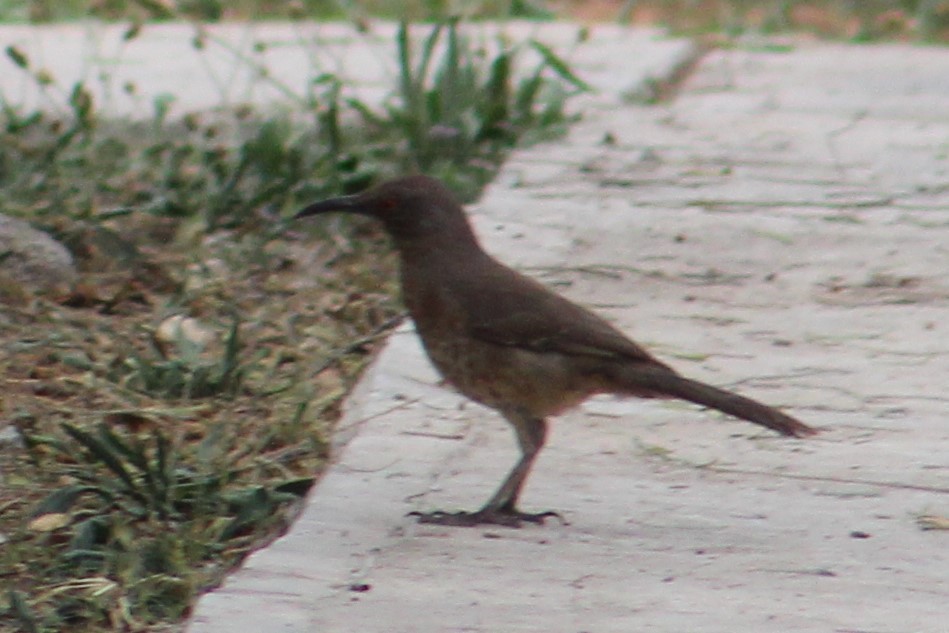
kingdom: Animalia
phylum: Chordata
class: Aves
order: Passeriformes
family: Mimidae
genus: Toxostoma
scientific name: Toxostoma curvirostre
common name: Curve-billed thrasher
